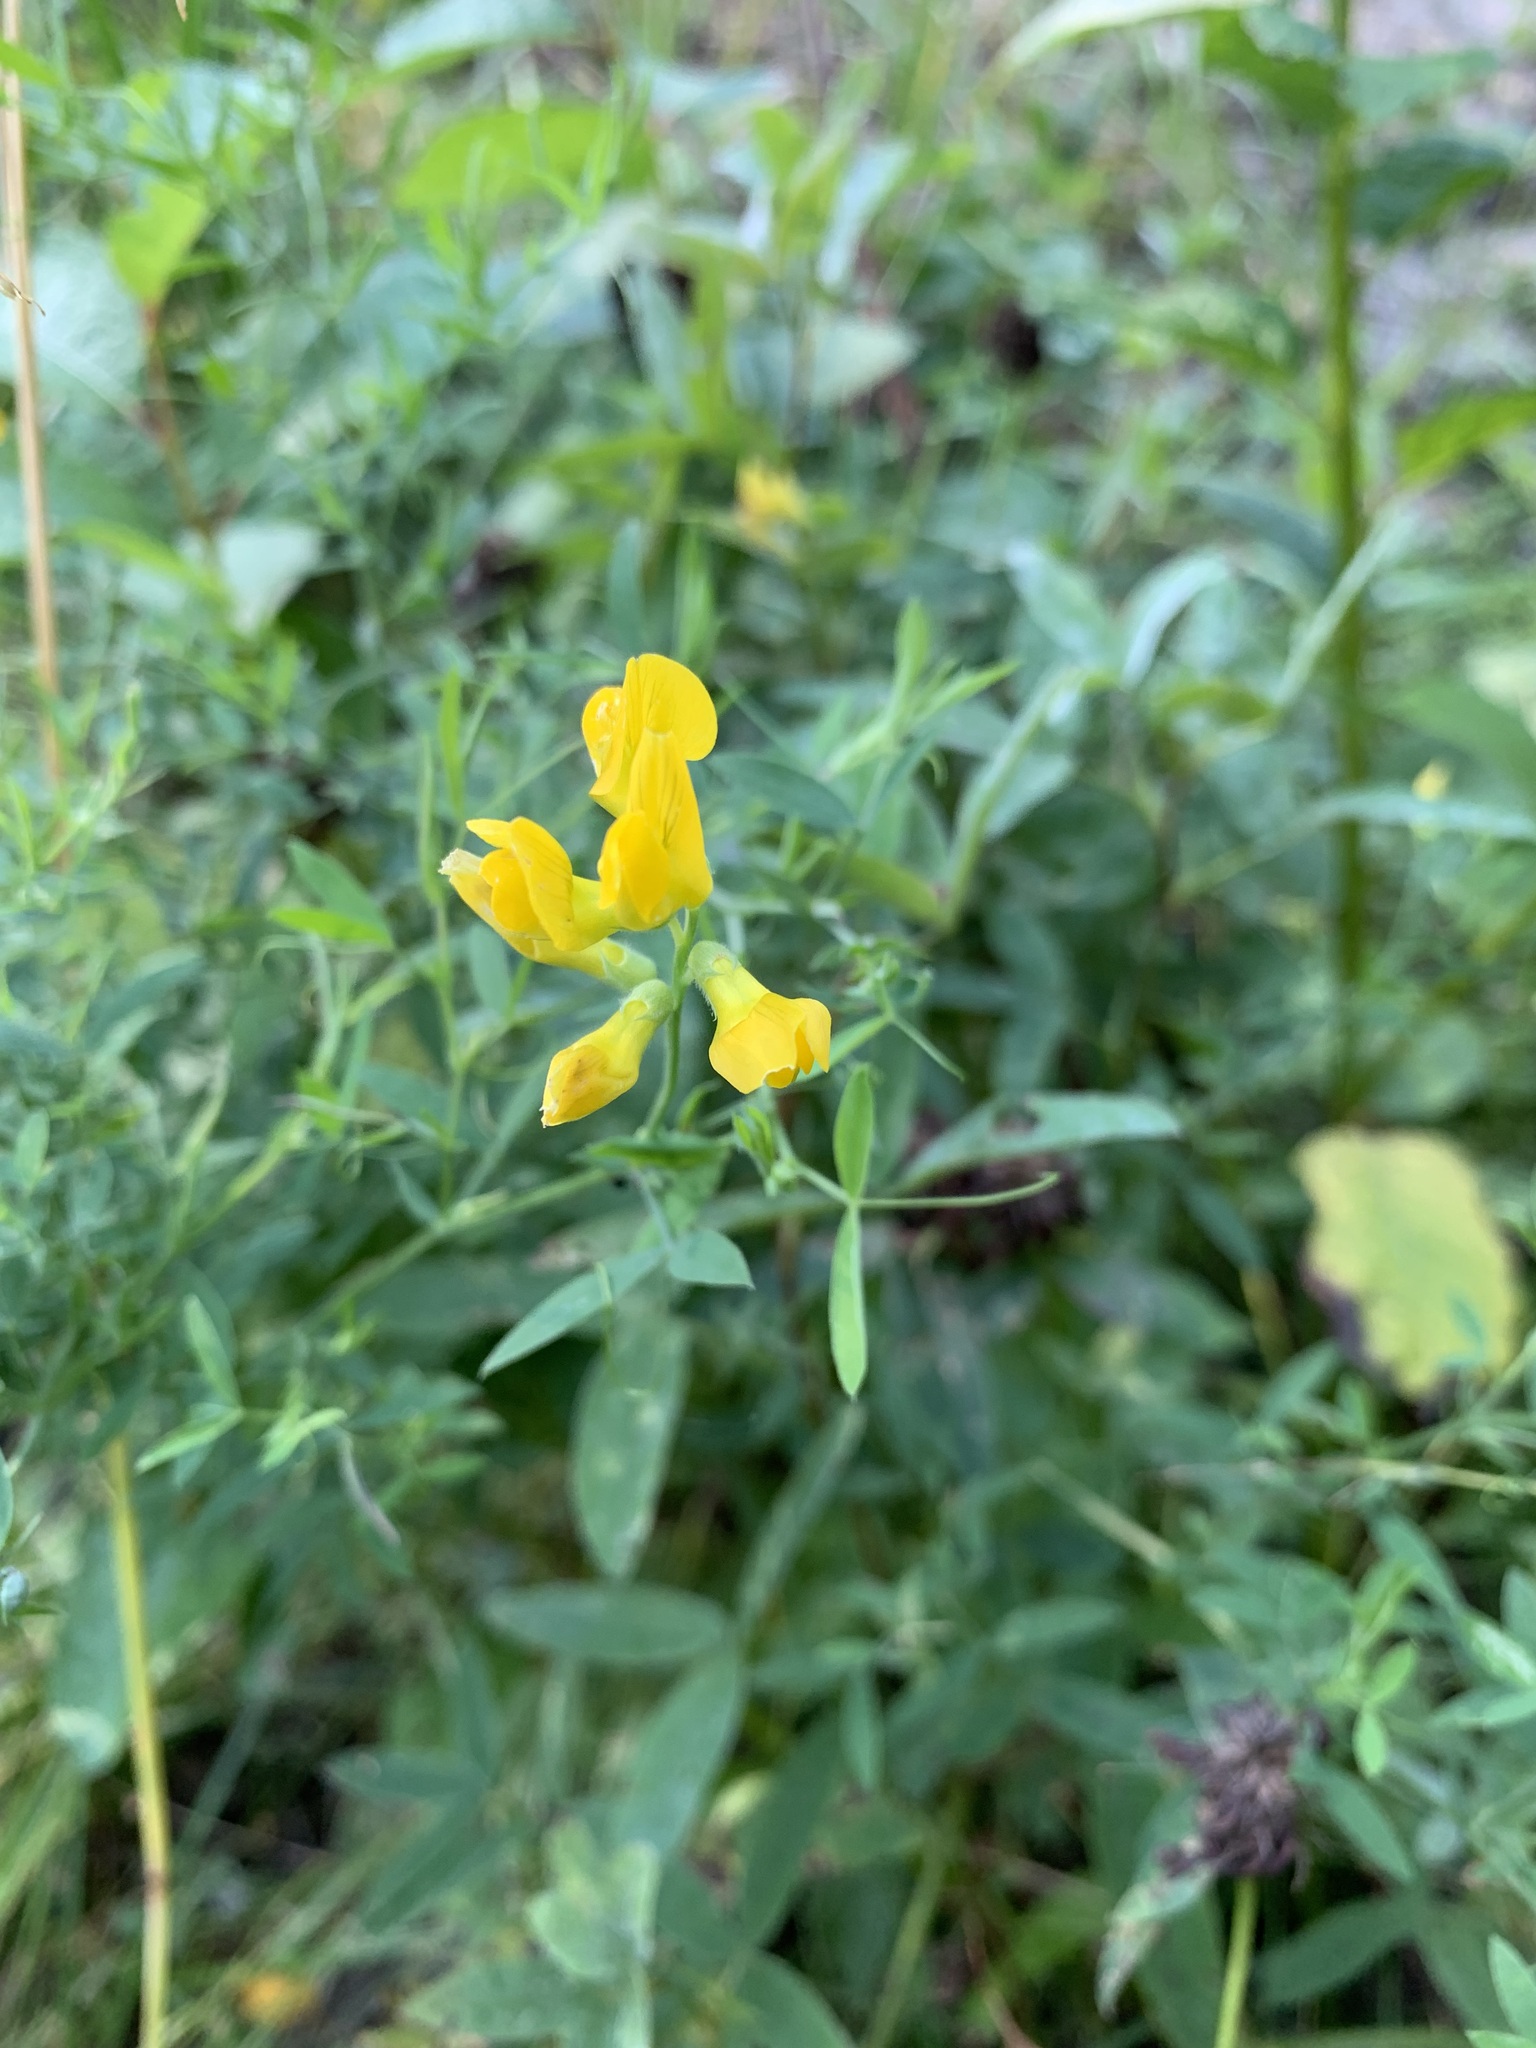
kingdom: Plantae
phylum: Tracheophyta
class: Magnoliopsida
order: Fabales
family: Fabaceae
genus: Lathyrus
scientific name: Lathyrus pratensis
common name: Meadow vetchling
